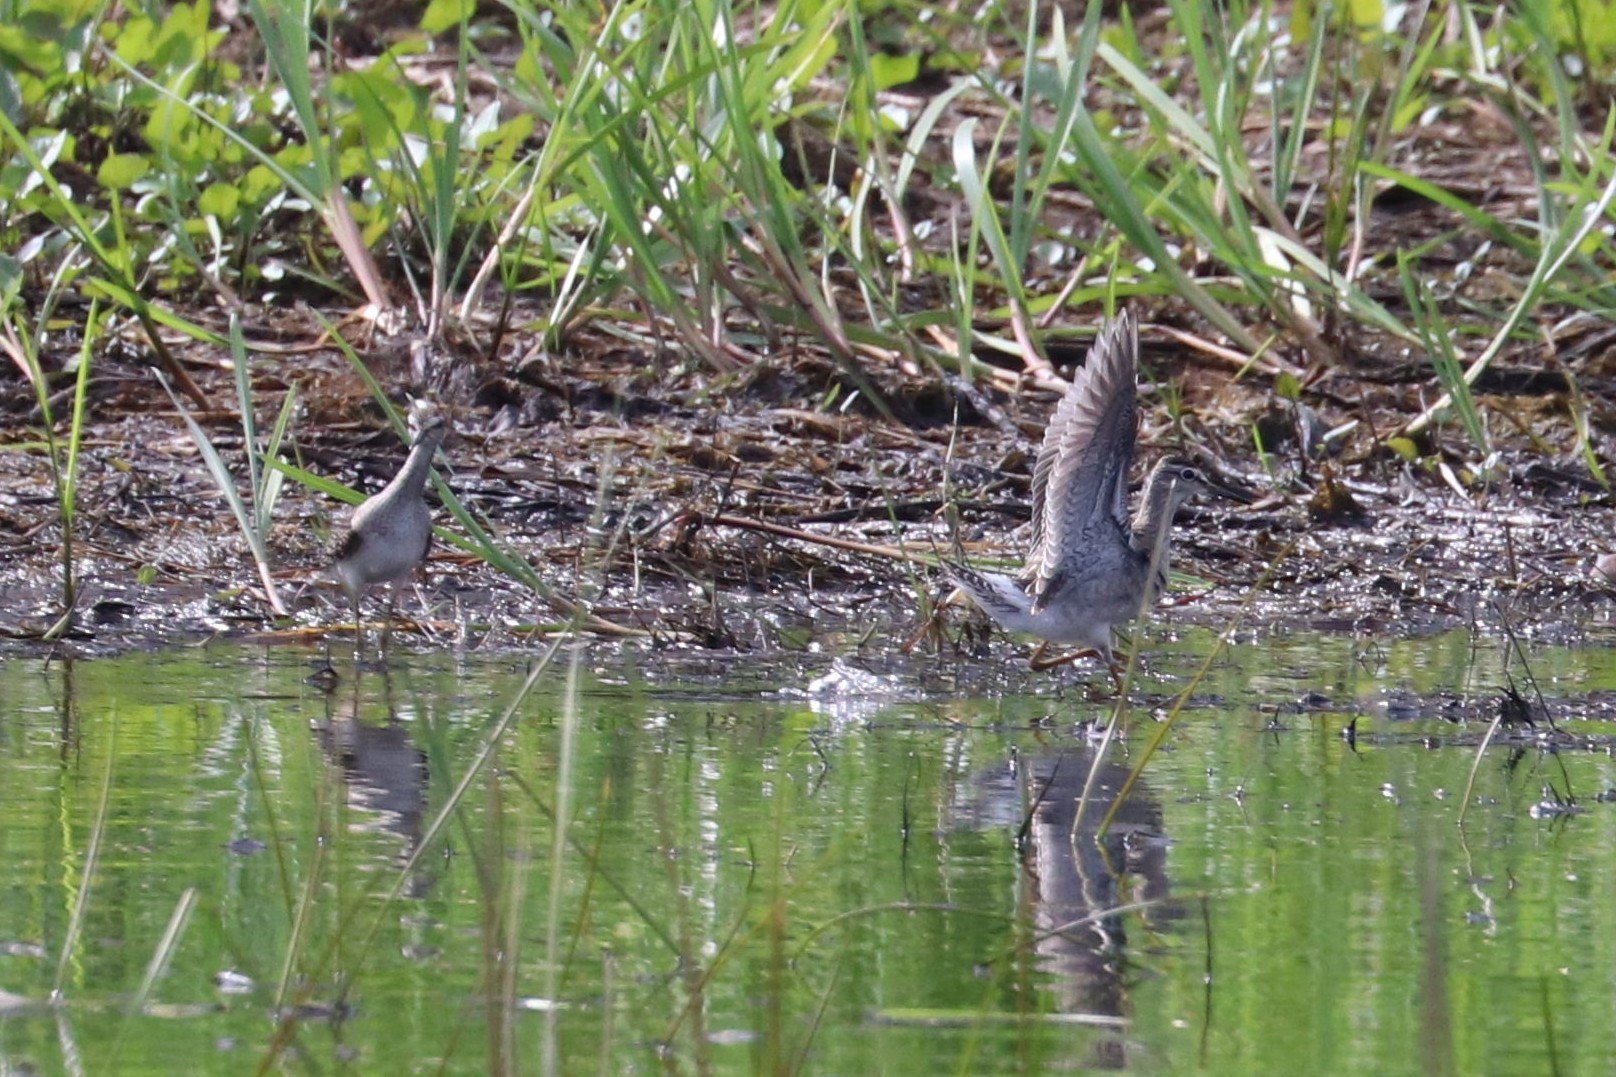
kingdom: Animalia
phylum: Chordata
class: Aves
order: Charadriiformes
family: Scolopacidae
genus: Tringa
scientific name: Tringa glareola
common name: Wood sandpiper
